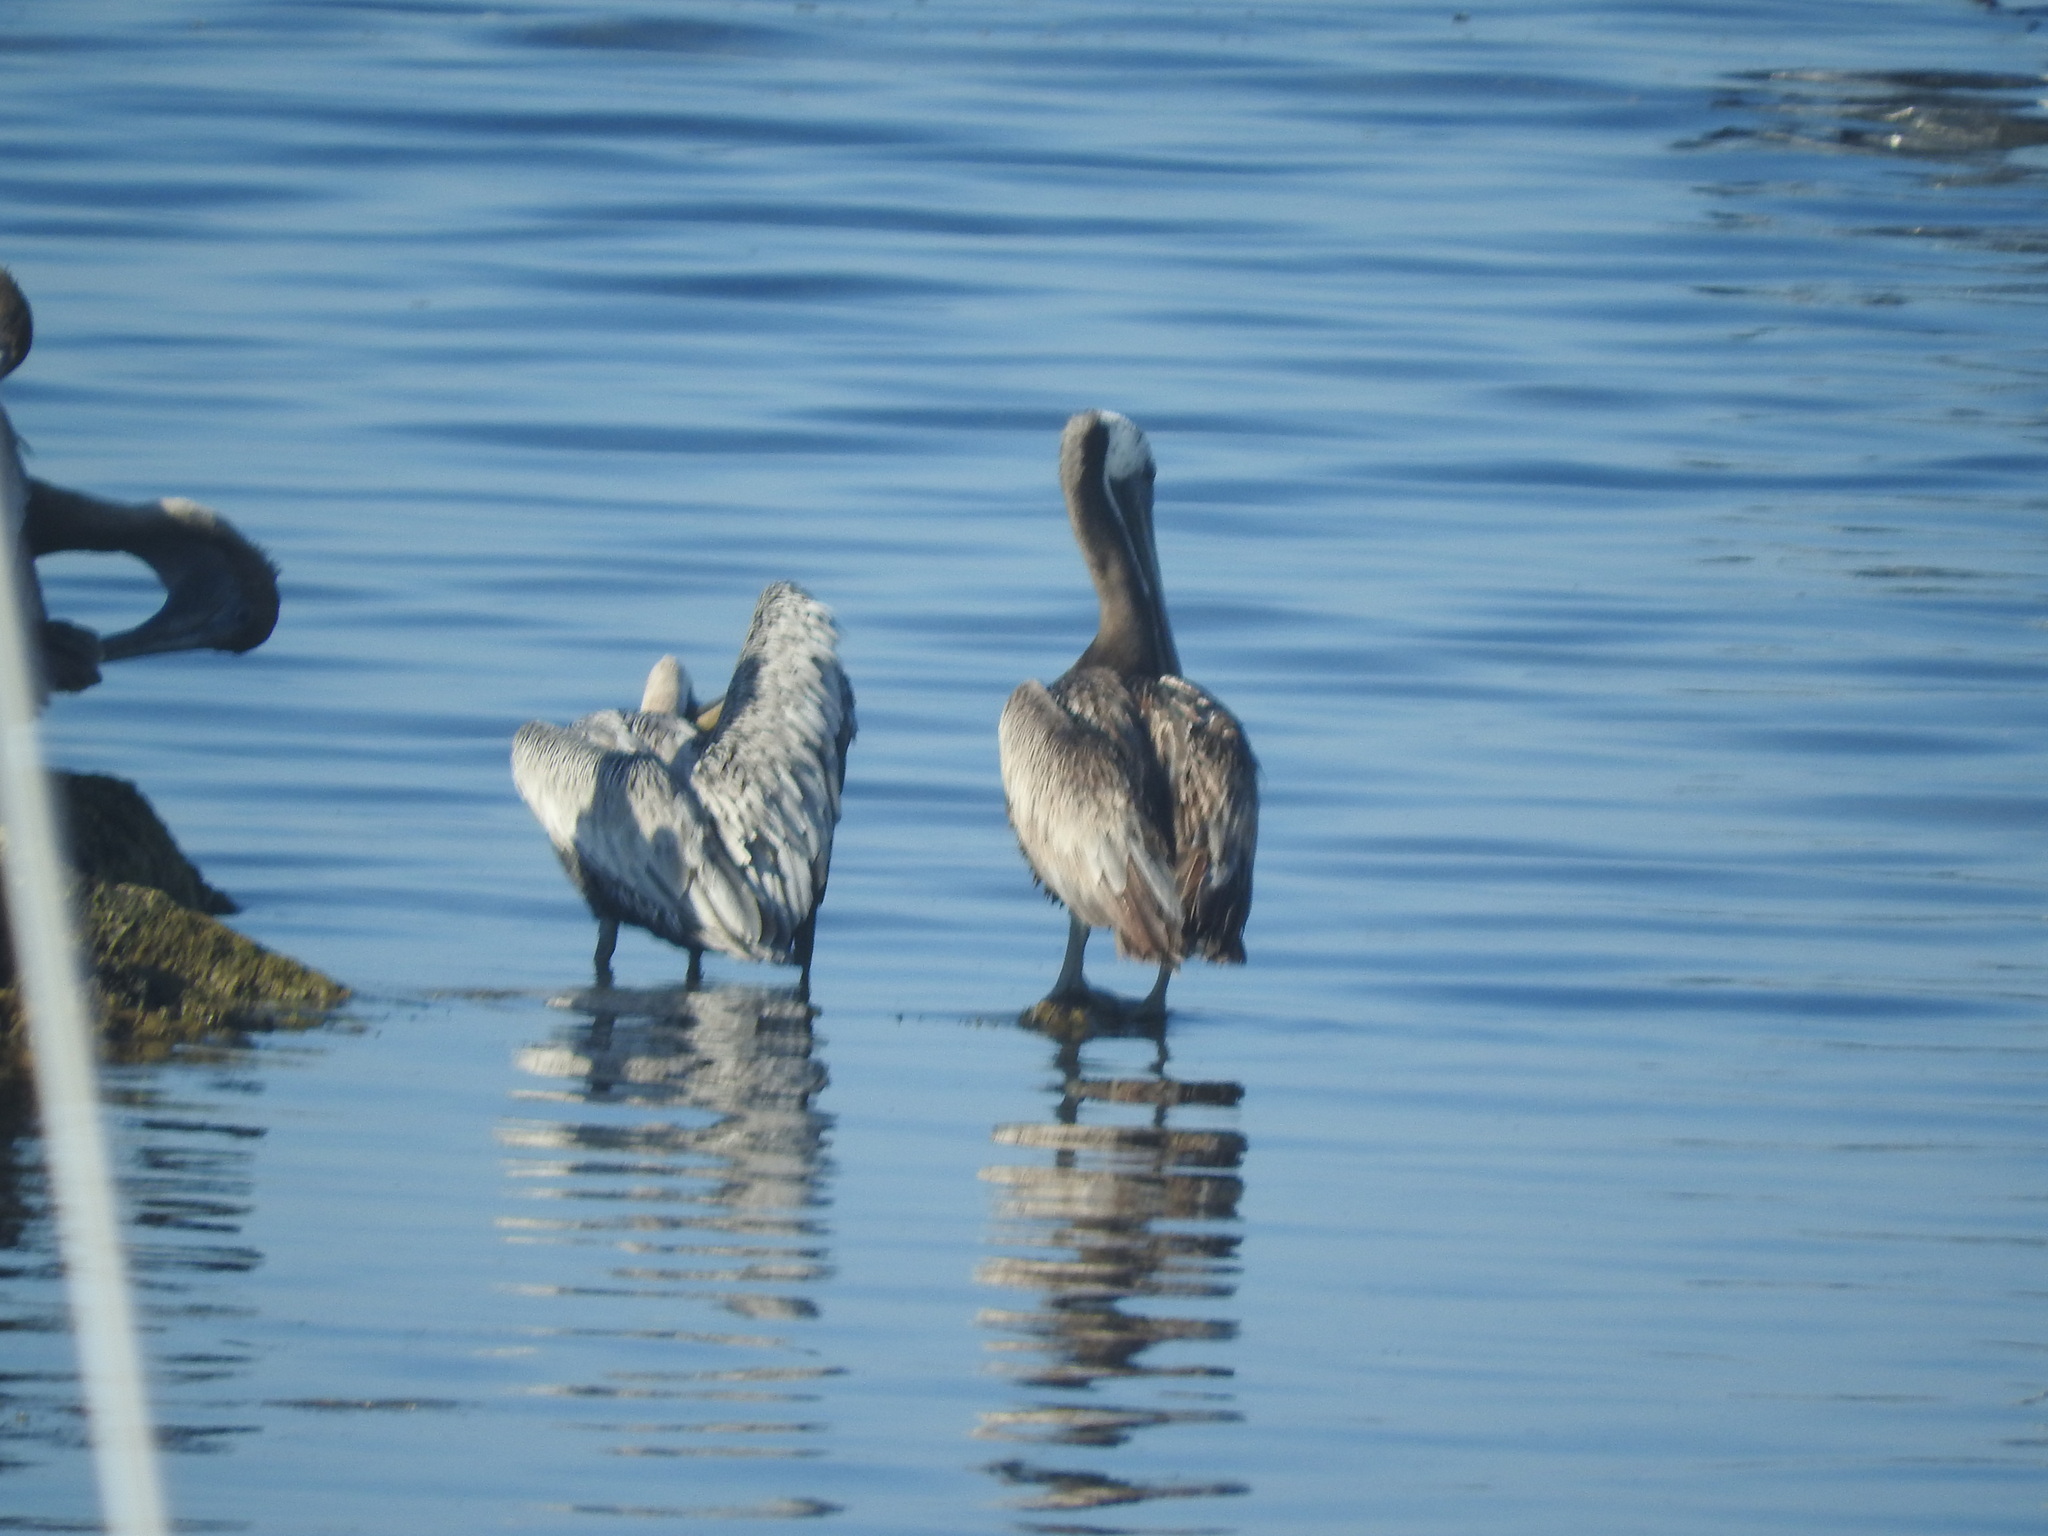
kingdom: Animalia
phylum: Chordata
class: Aves
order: Pelecaniformes
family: Pelecanidae
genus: Pelecanus
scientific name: Pelecanus occidentalis
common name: Brown pelican
